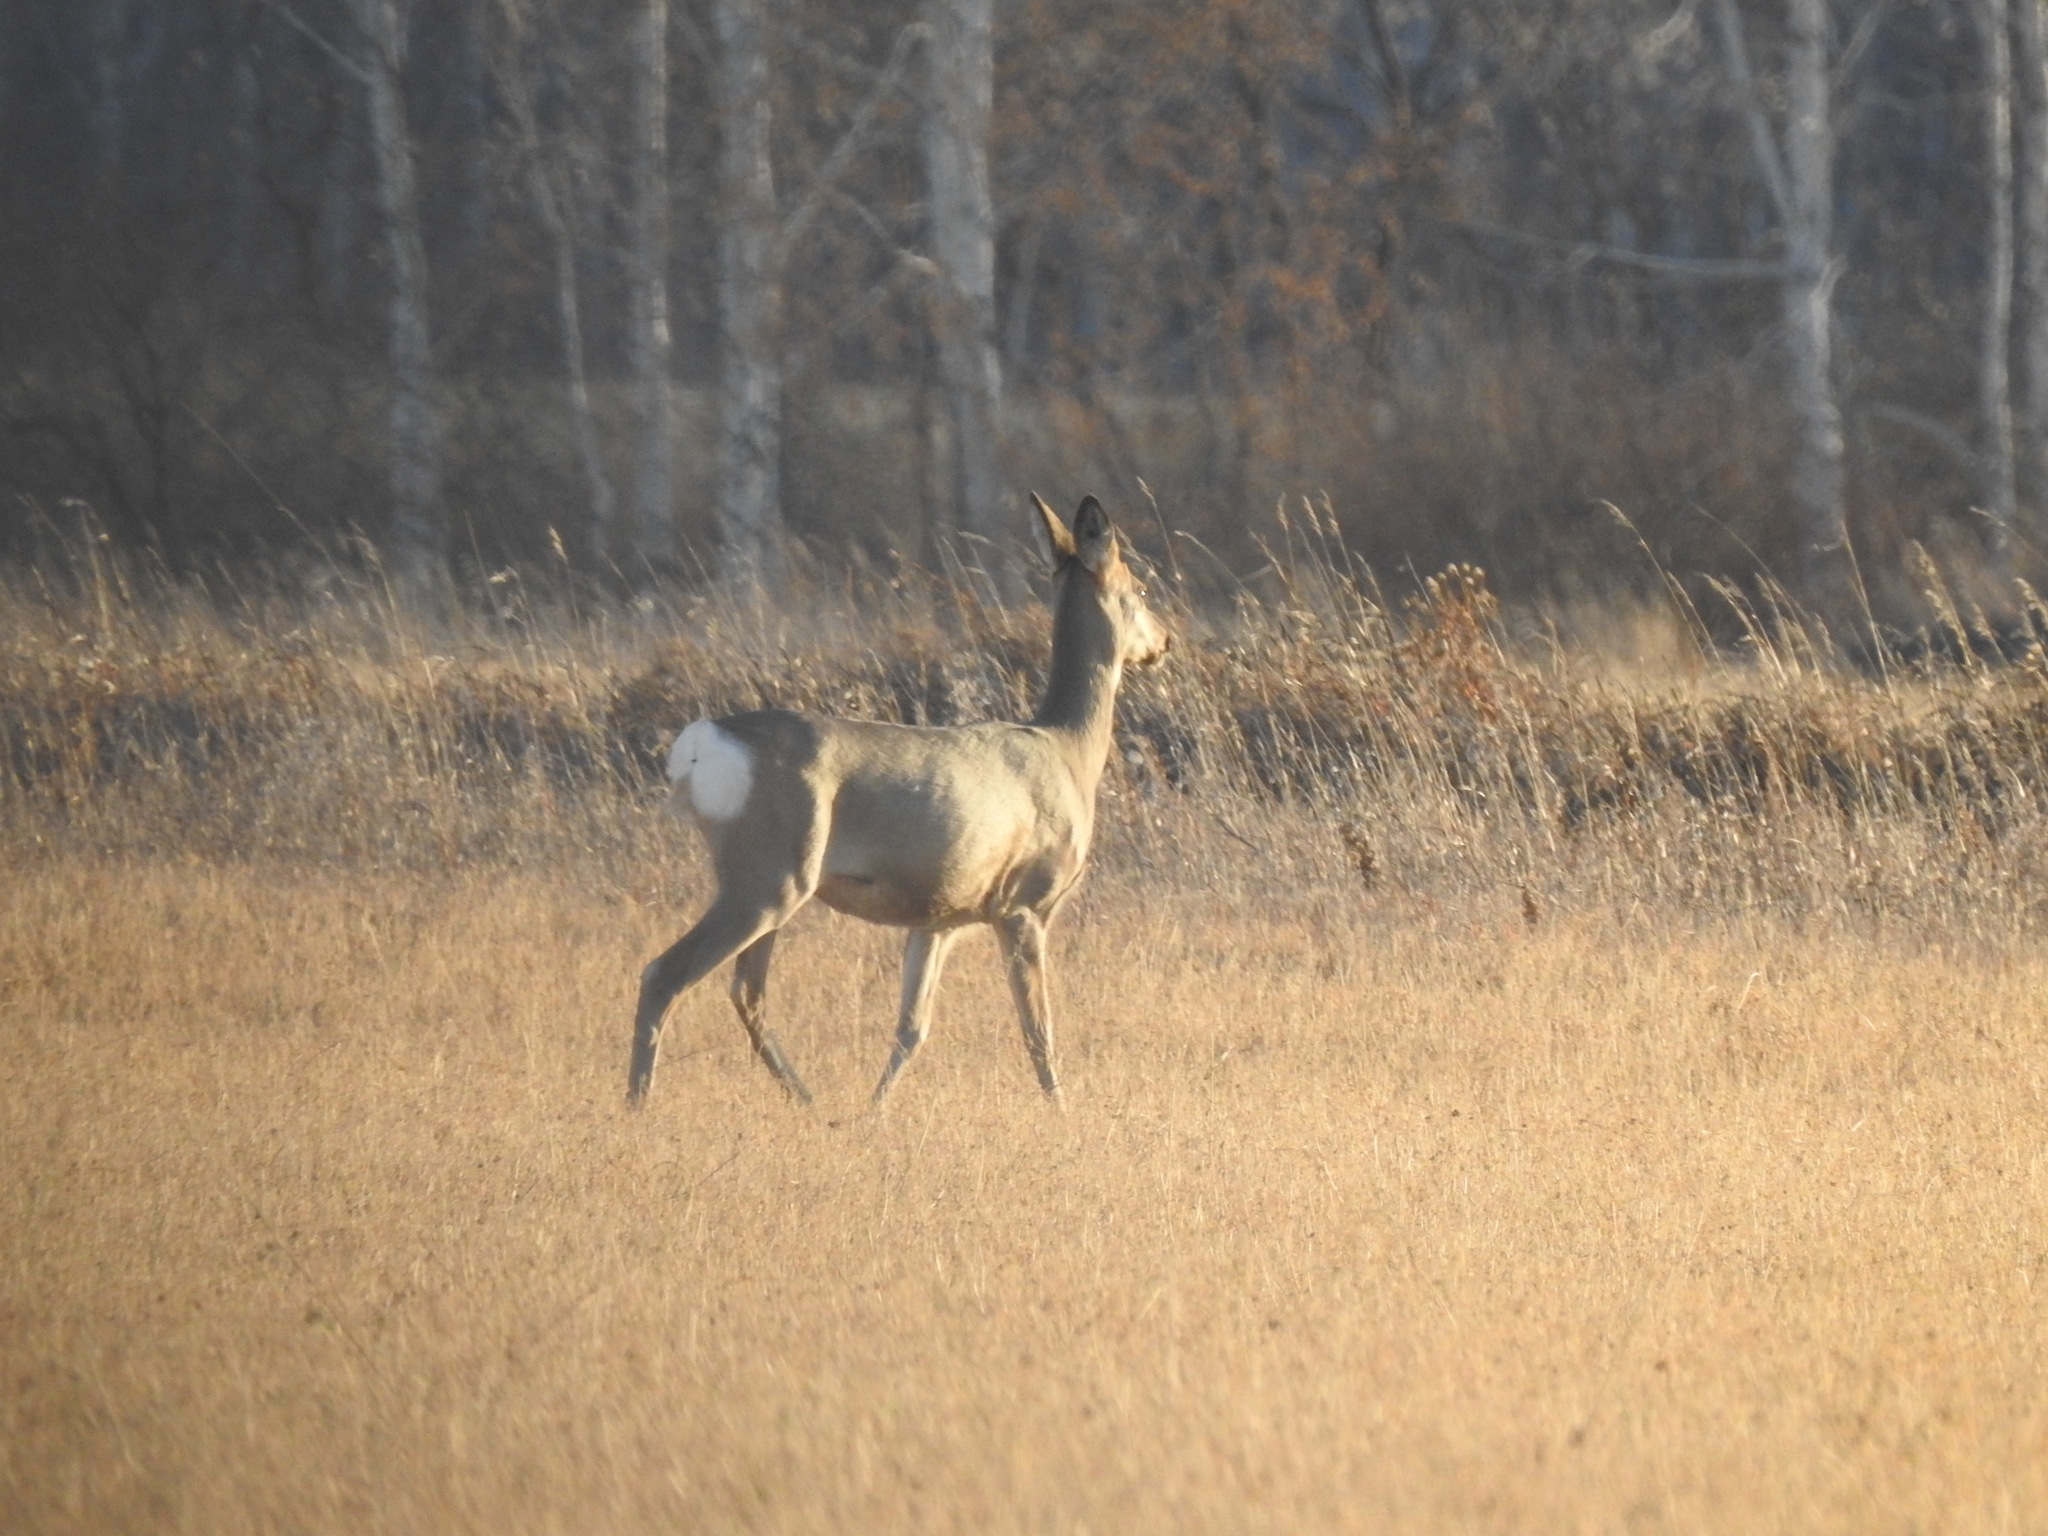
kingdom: Animalia
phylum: Chordata
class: Mammalia
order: Artiodactyla
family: Cervidae
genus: Capreolus
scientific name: Capreolus pygargus
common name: Siberian roe
